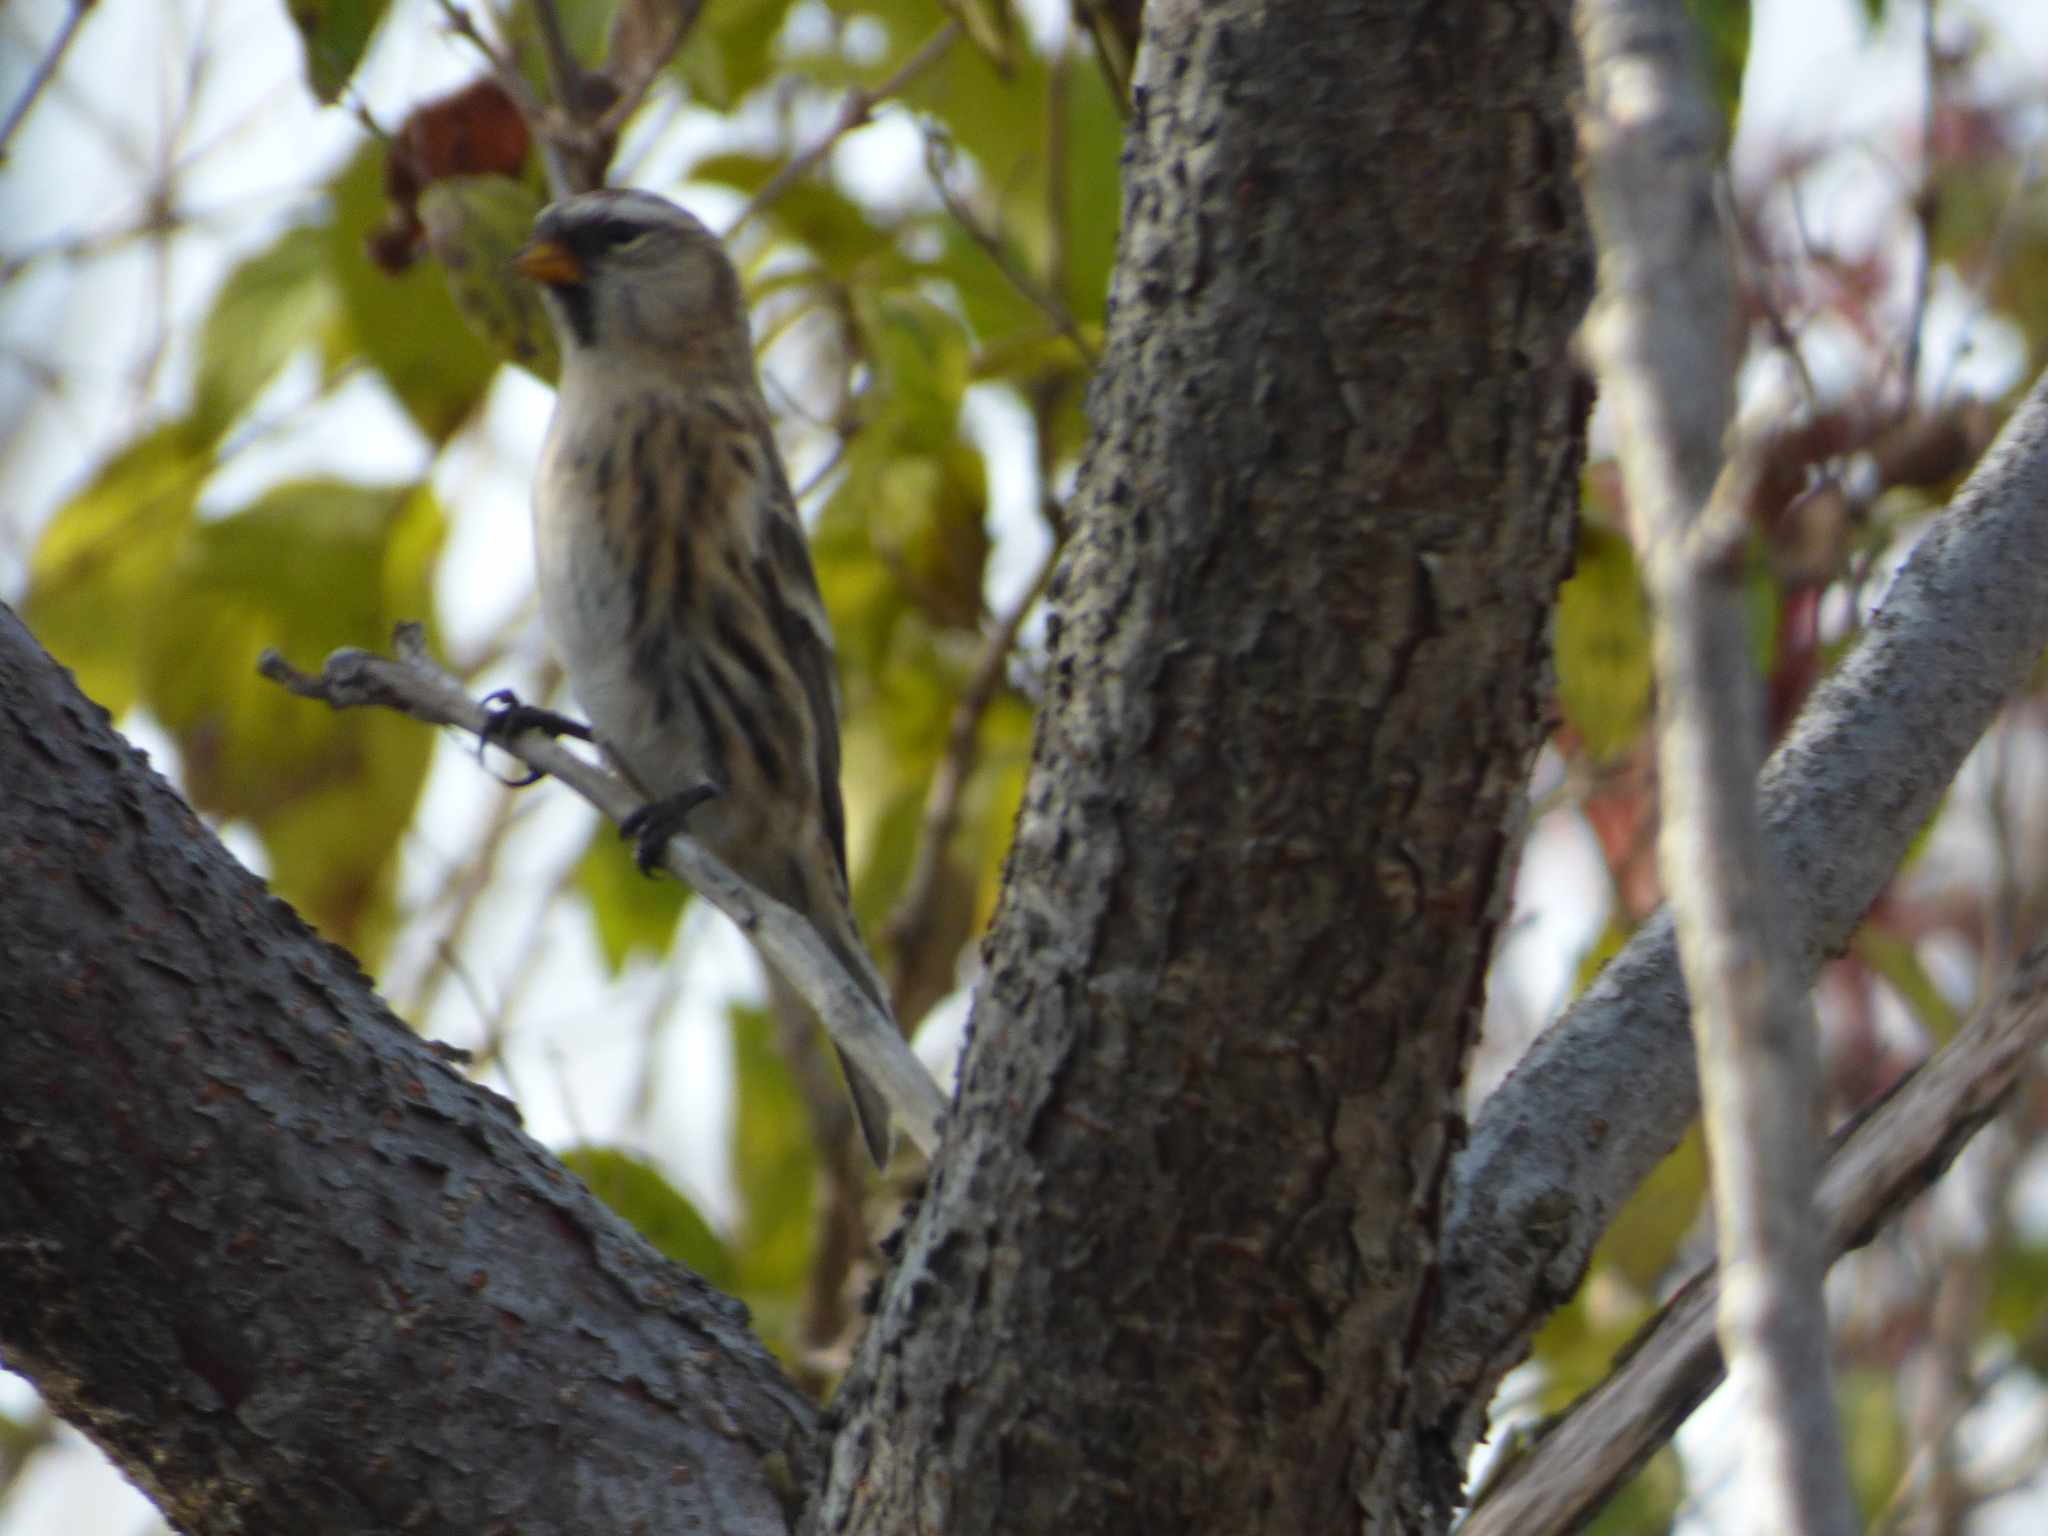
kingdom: Animalia
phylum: Chordata
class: Aves
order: Passeriformes
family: Fringillidae
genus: Acanthis
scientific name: Acanthis flammea
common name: Common redpoll
